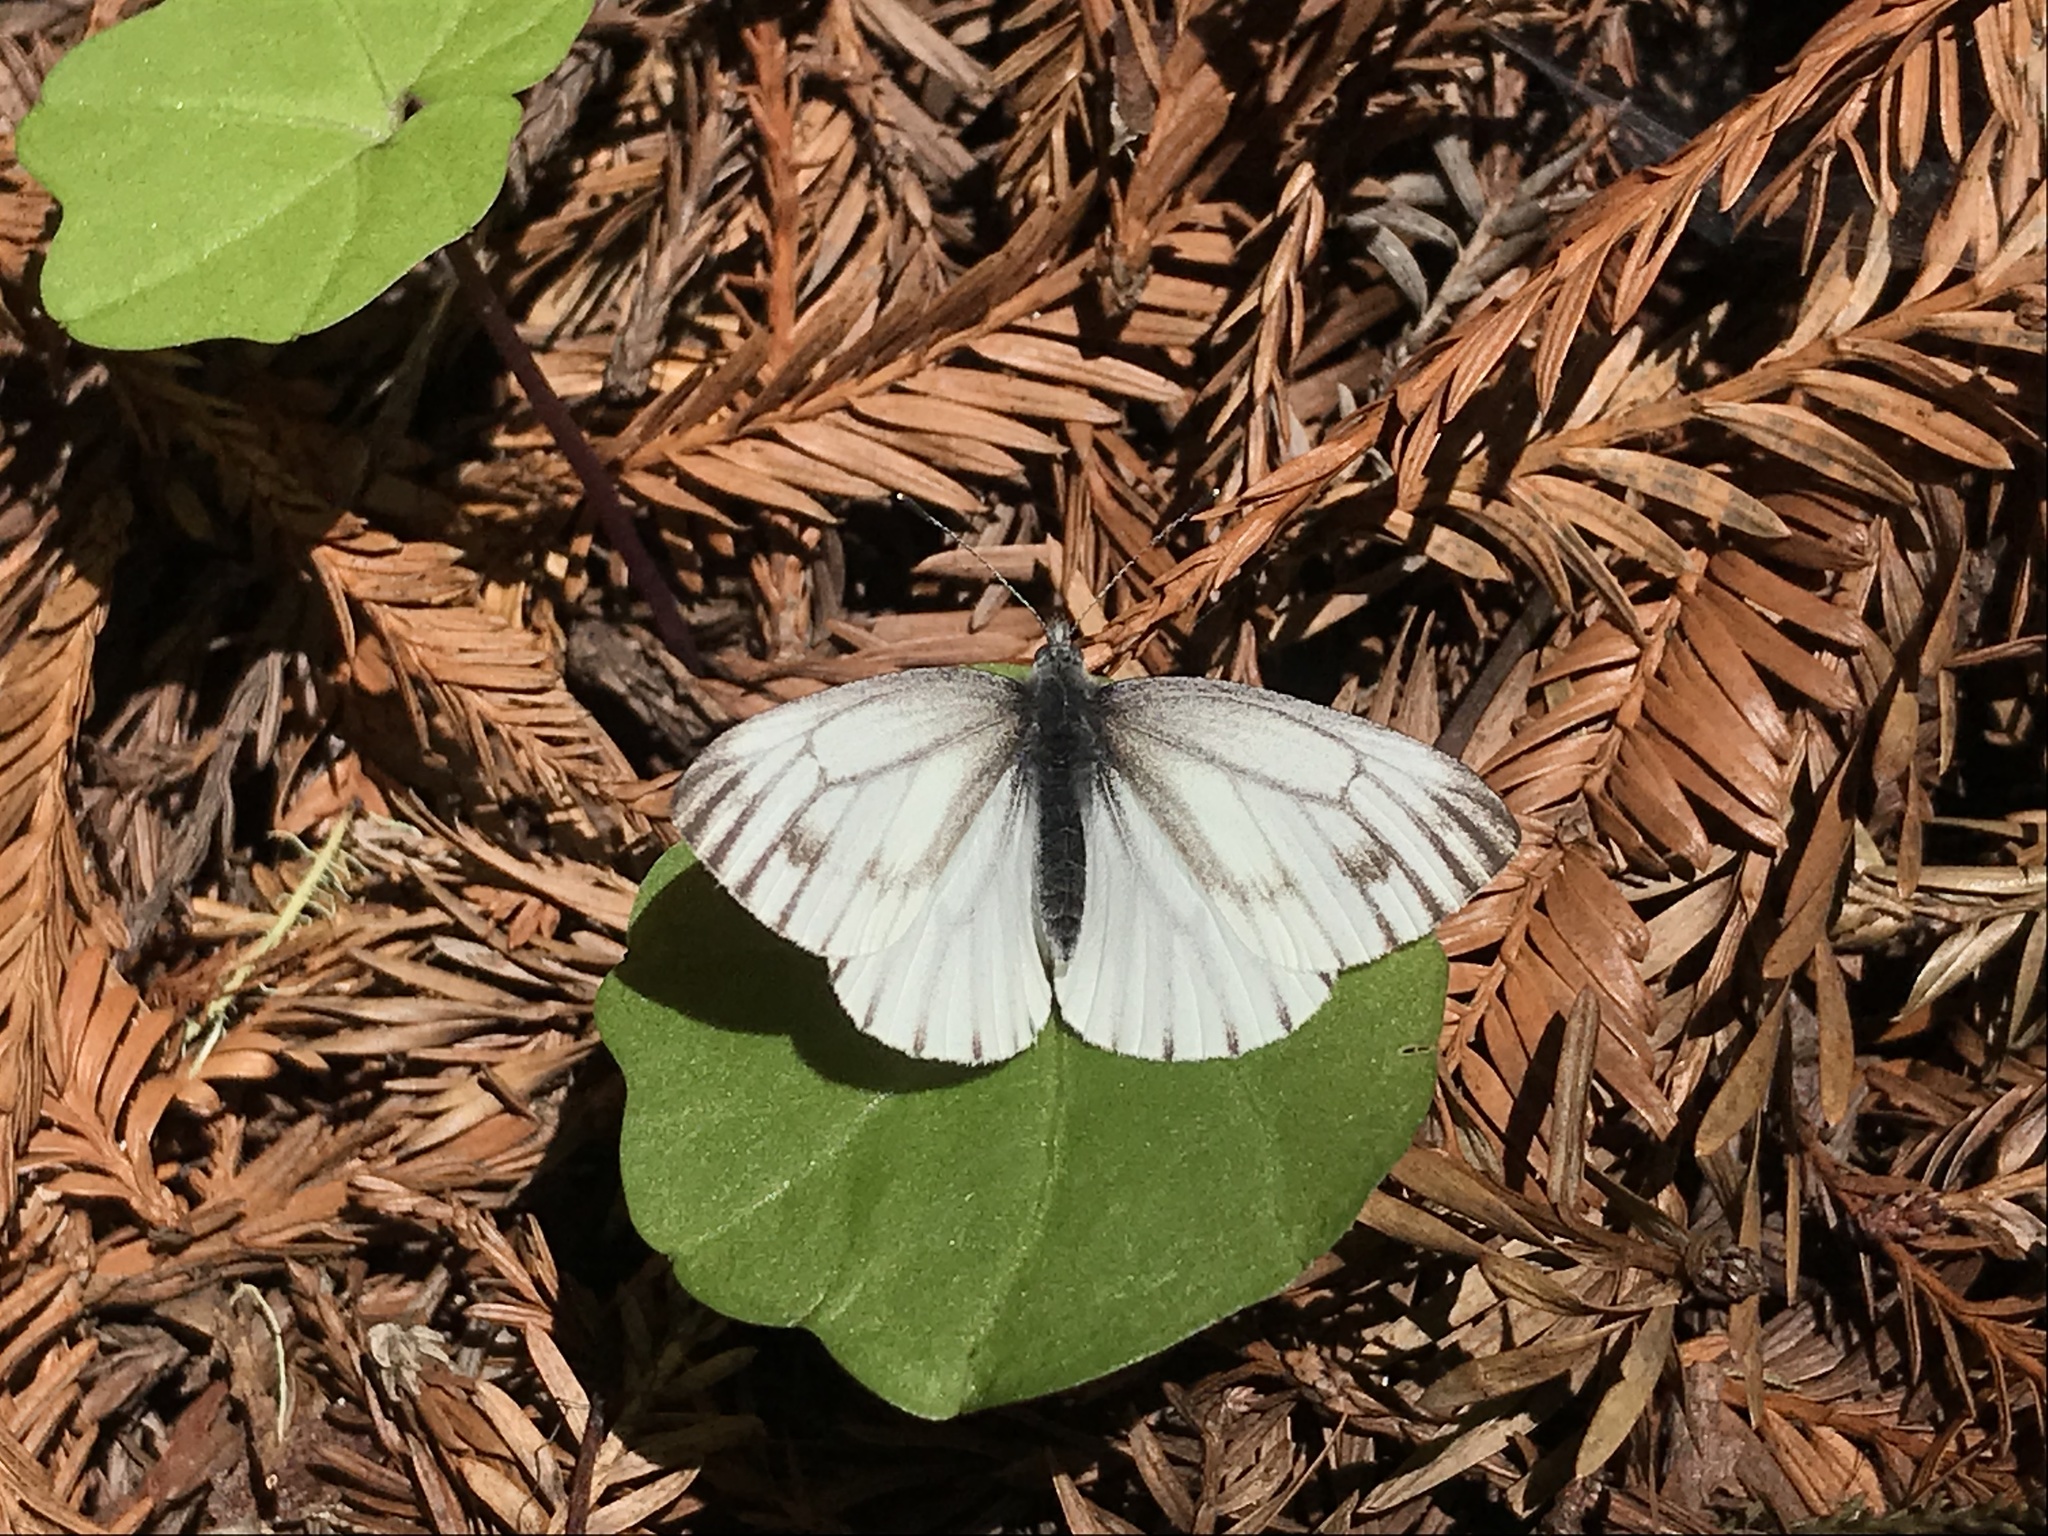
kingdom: Animalia
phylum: Arthropoda
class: Insecta
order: Lepidoptera
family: Pieridae
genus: Pieris
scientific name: Pieris marginalis
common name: Margined white
